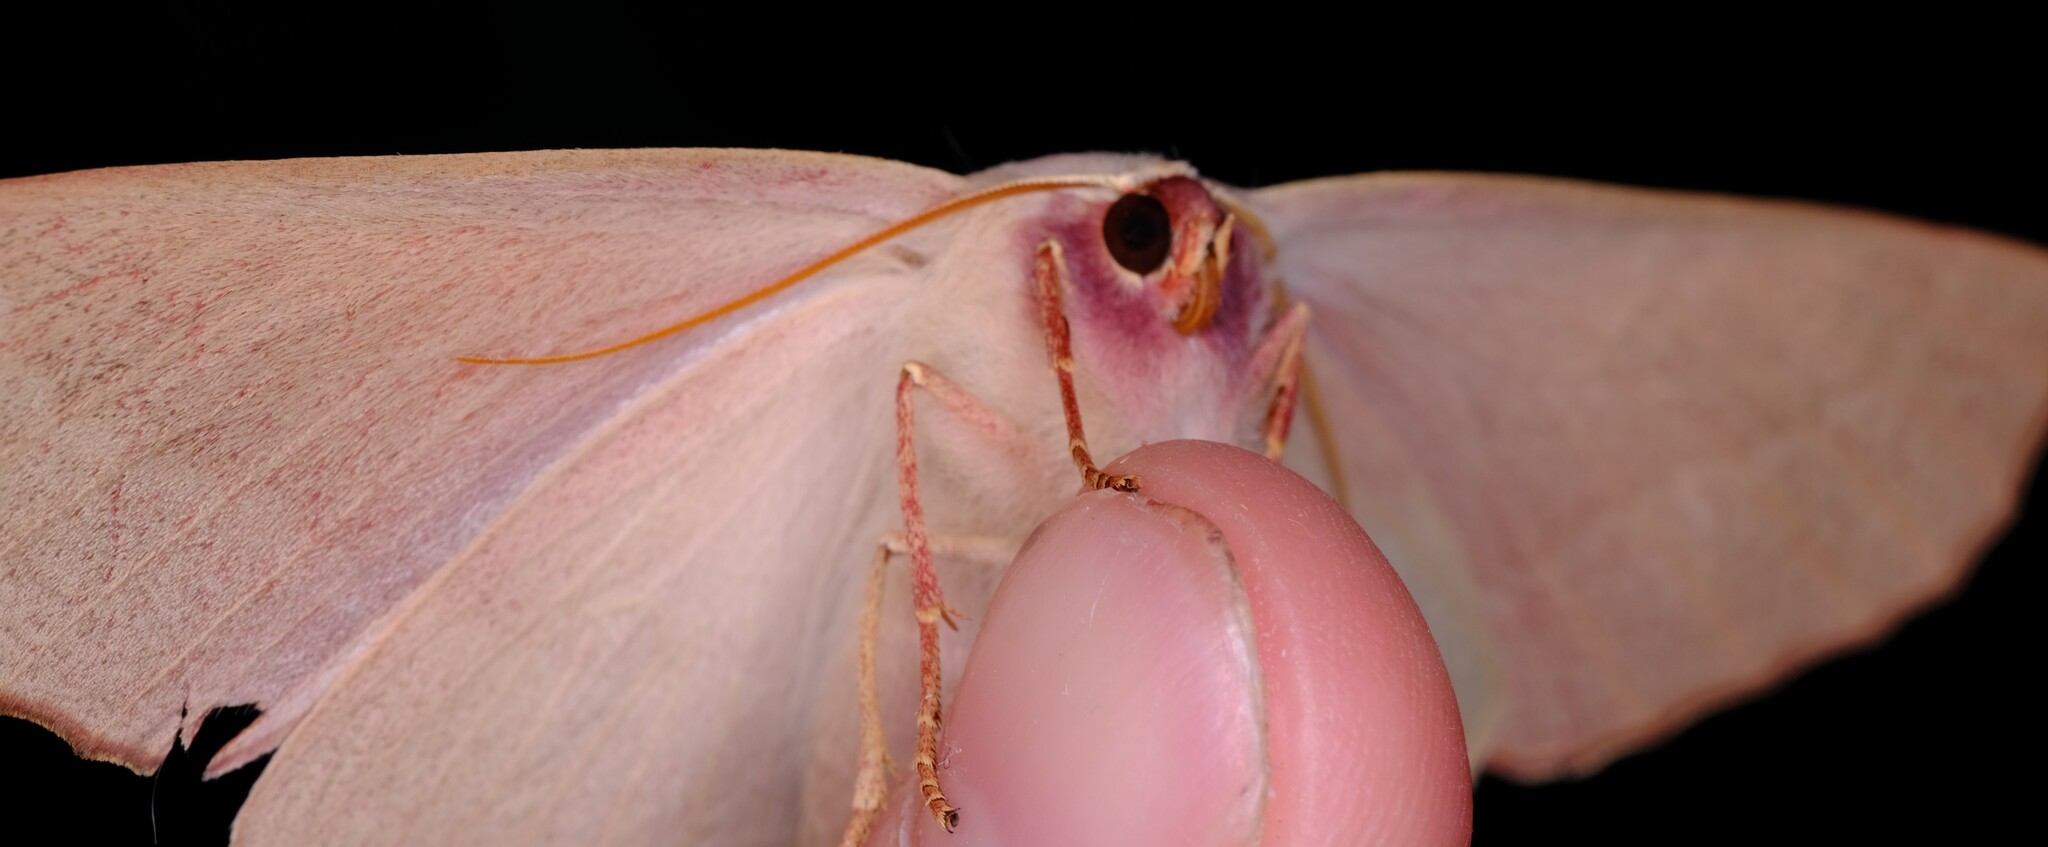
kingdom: Animalia
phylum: Arthropoda
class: Insecta
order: Lepidoptera
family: Geometridae
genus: Monoctenia
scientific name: Monoctenia falernaria
